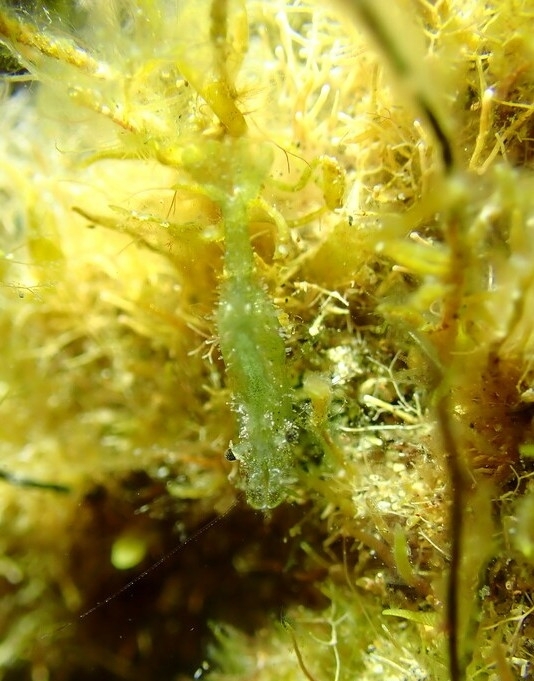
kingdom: Animalia
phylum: Arthropoda
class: Malacostraca
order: Decapoda
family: Hippolytidae
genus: Hippolyte
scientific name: Hippolyte varians
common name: Chamaeleon prawn
